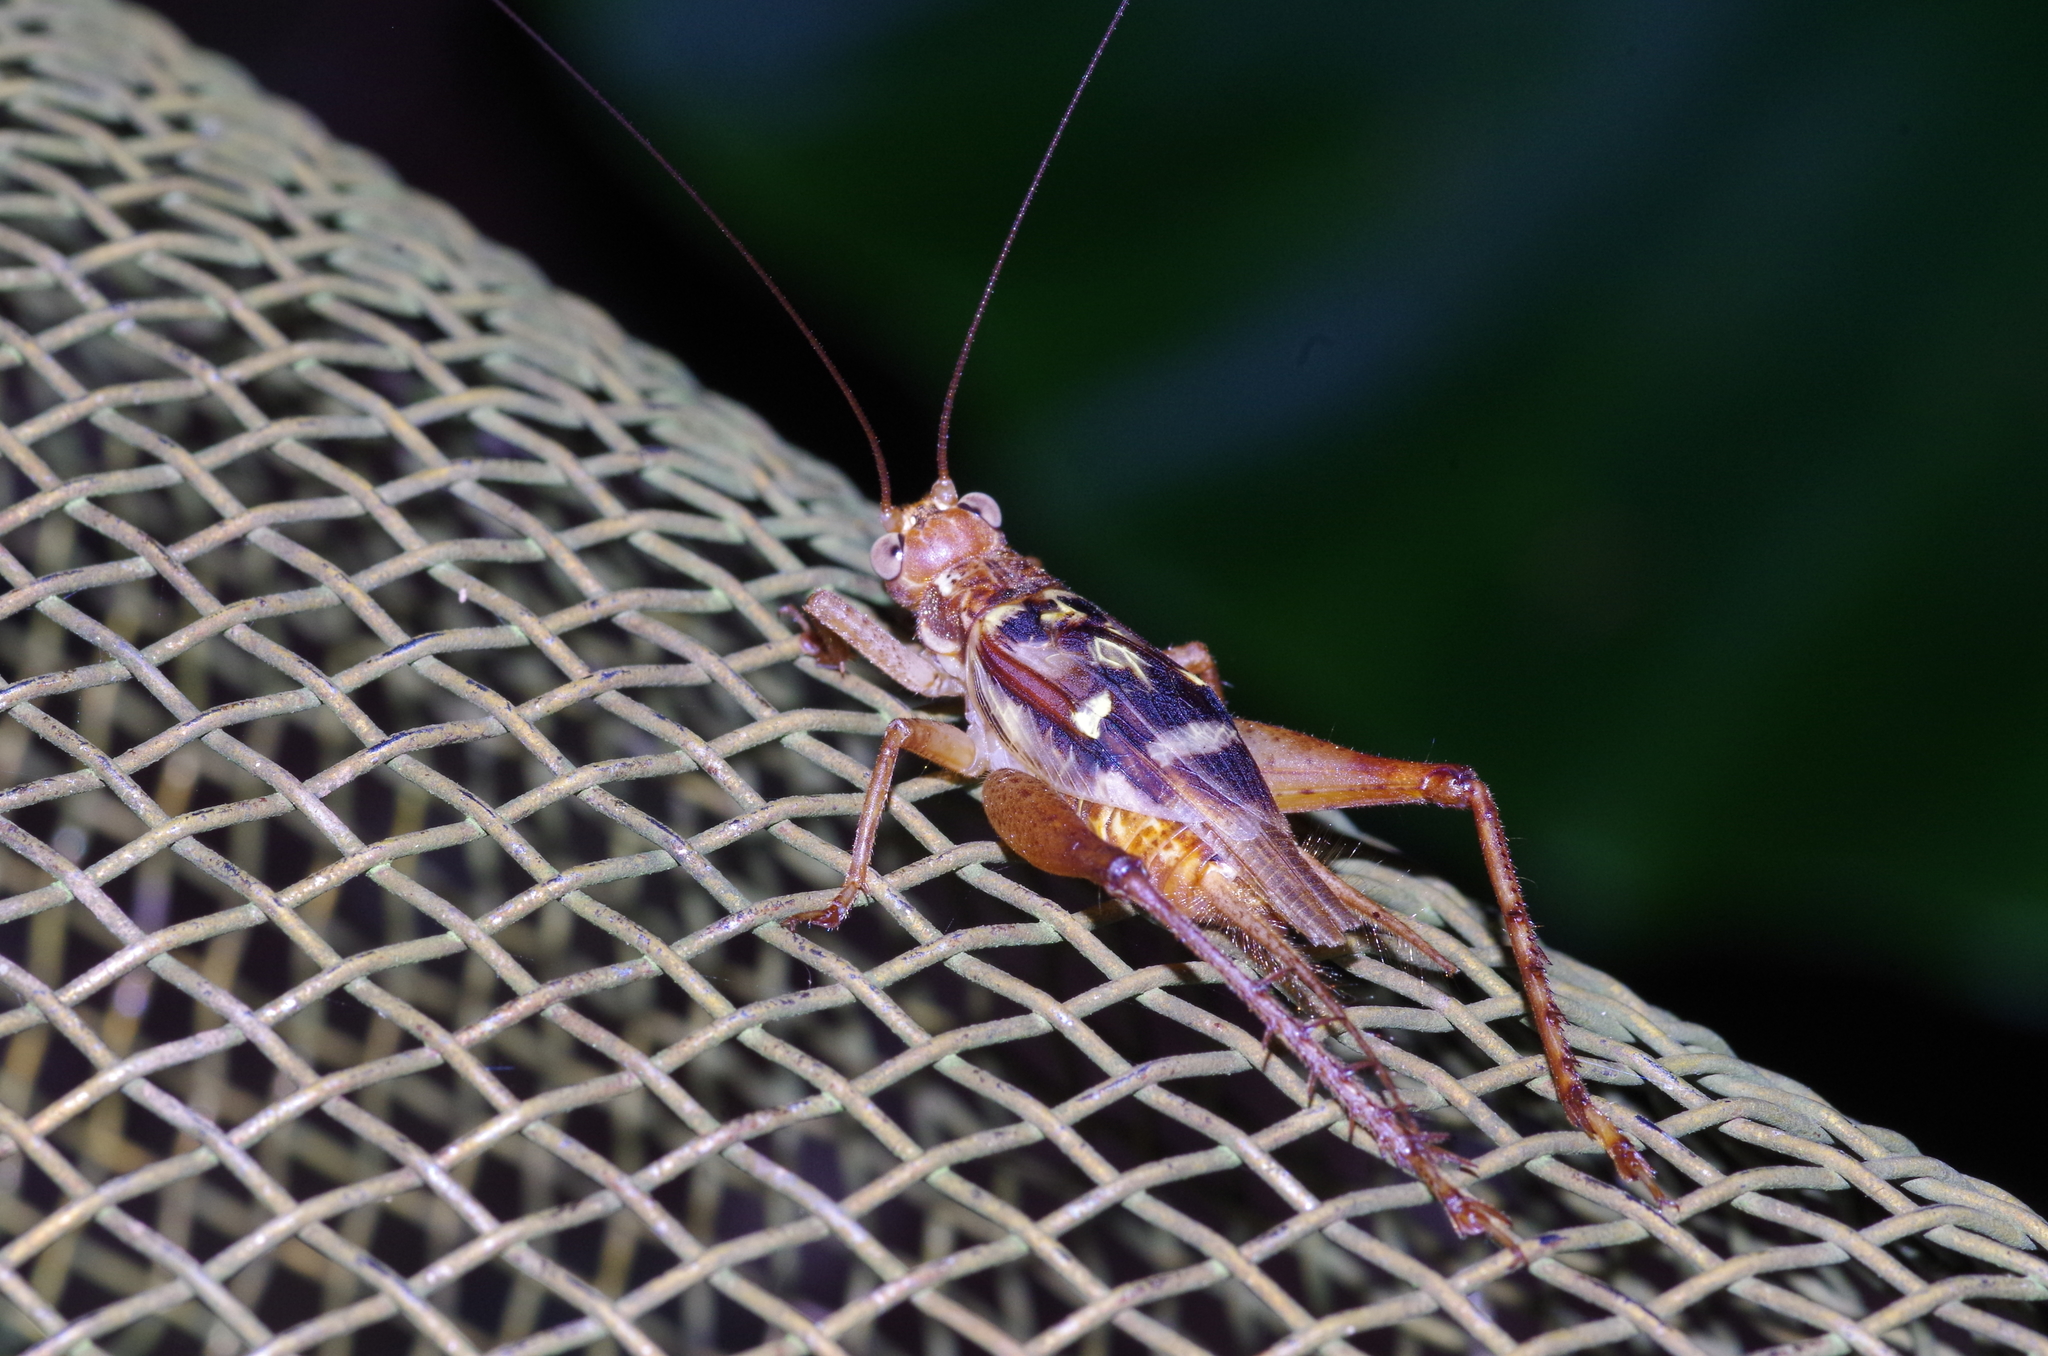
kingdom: Animalia
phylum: Arthropoda
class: Insecta
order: Orthoptera
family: Gryllidae
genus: Cardiodactylus
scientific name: Cardiodactylus guttulus
